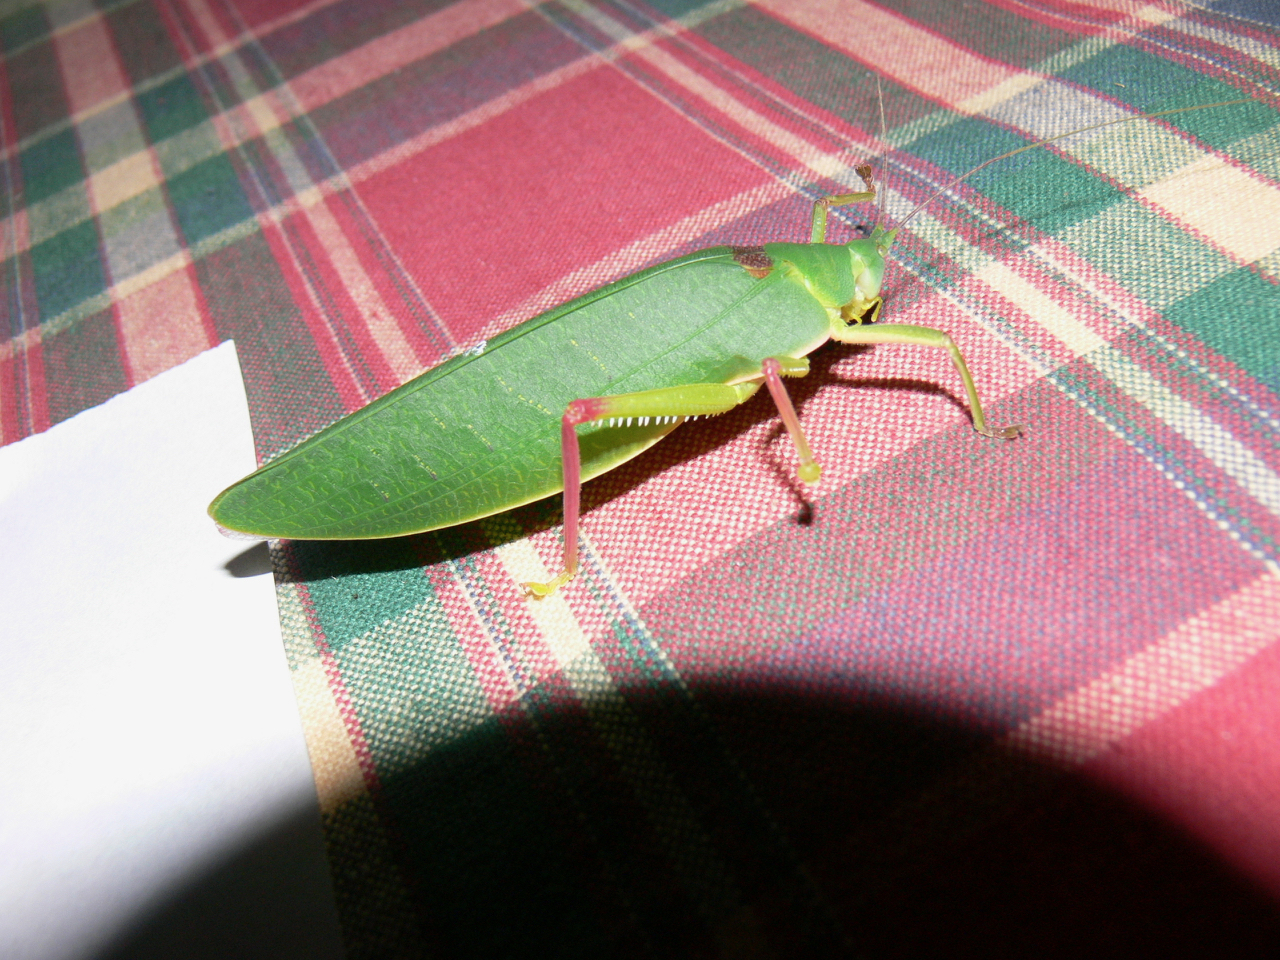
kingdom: Animalia
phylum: Arthropoda
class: Insecta
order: Orthoptera
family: Tettigoniidae
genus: Phyllozelus
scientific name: Phyllozelus siccus
